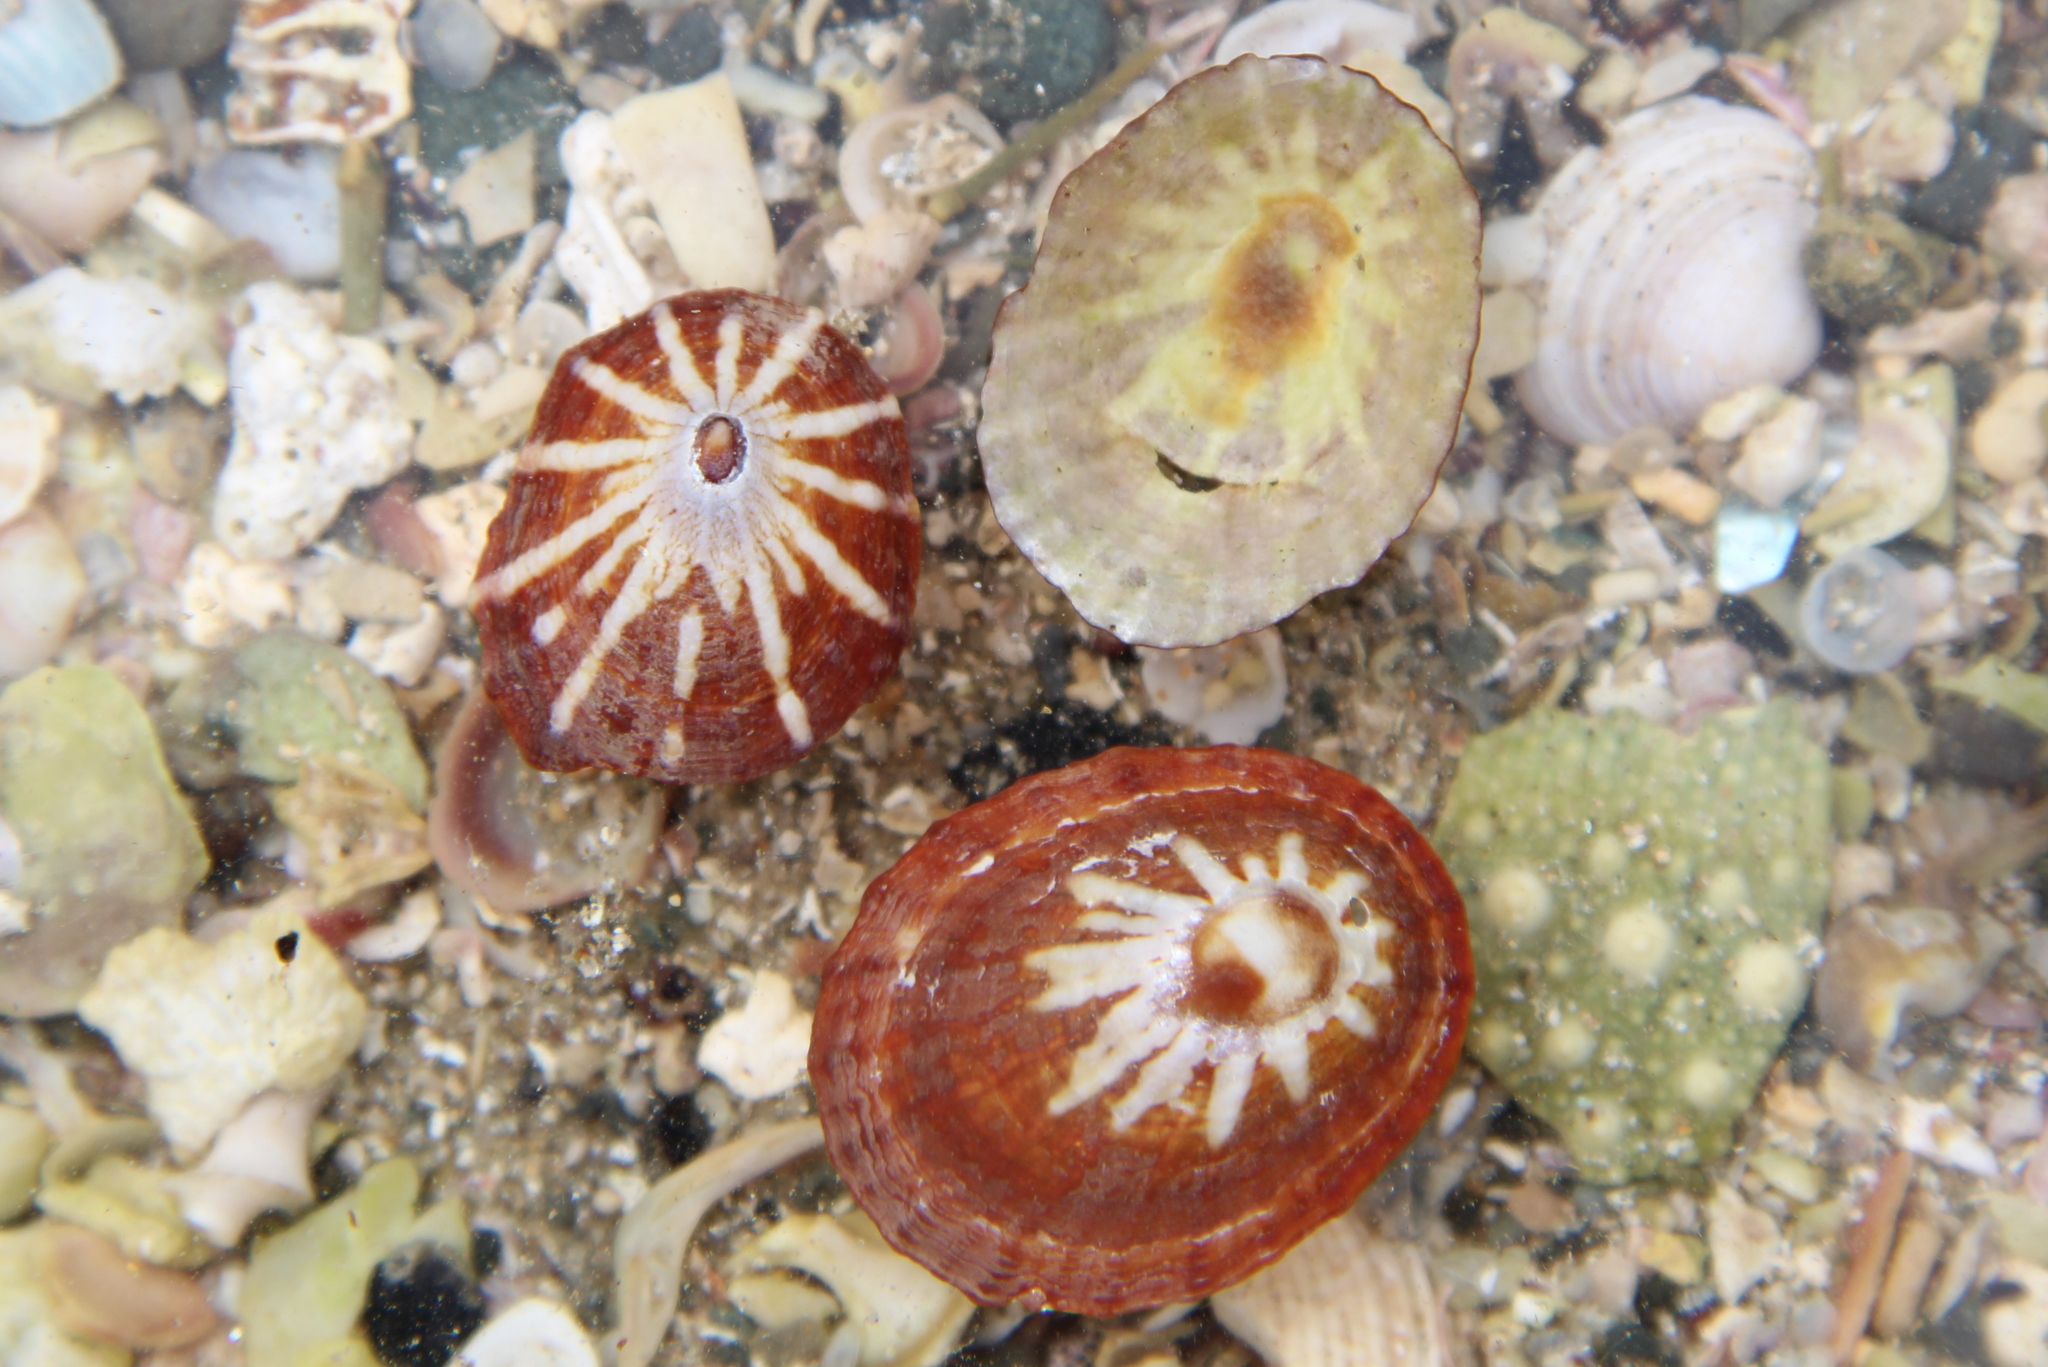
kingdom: Animalia
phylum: Mollusca
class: Gastropoda
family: Nacellidae
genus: Cellana
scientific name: Cellana stellifera
